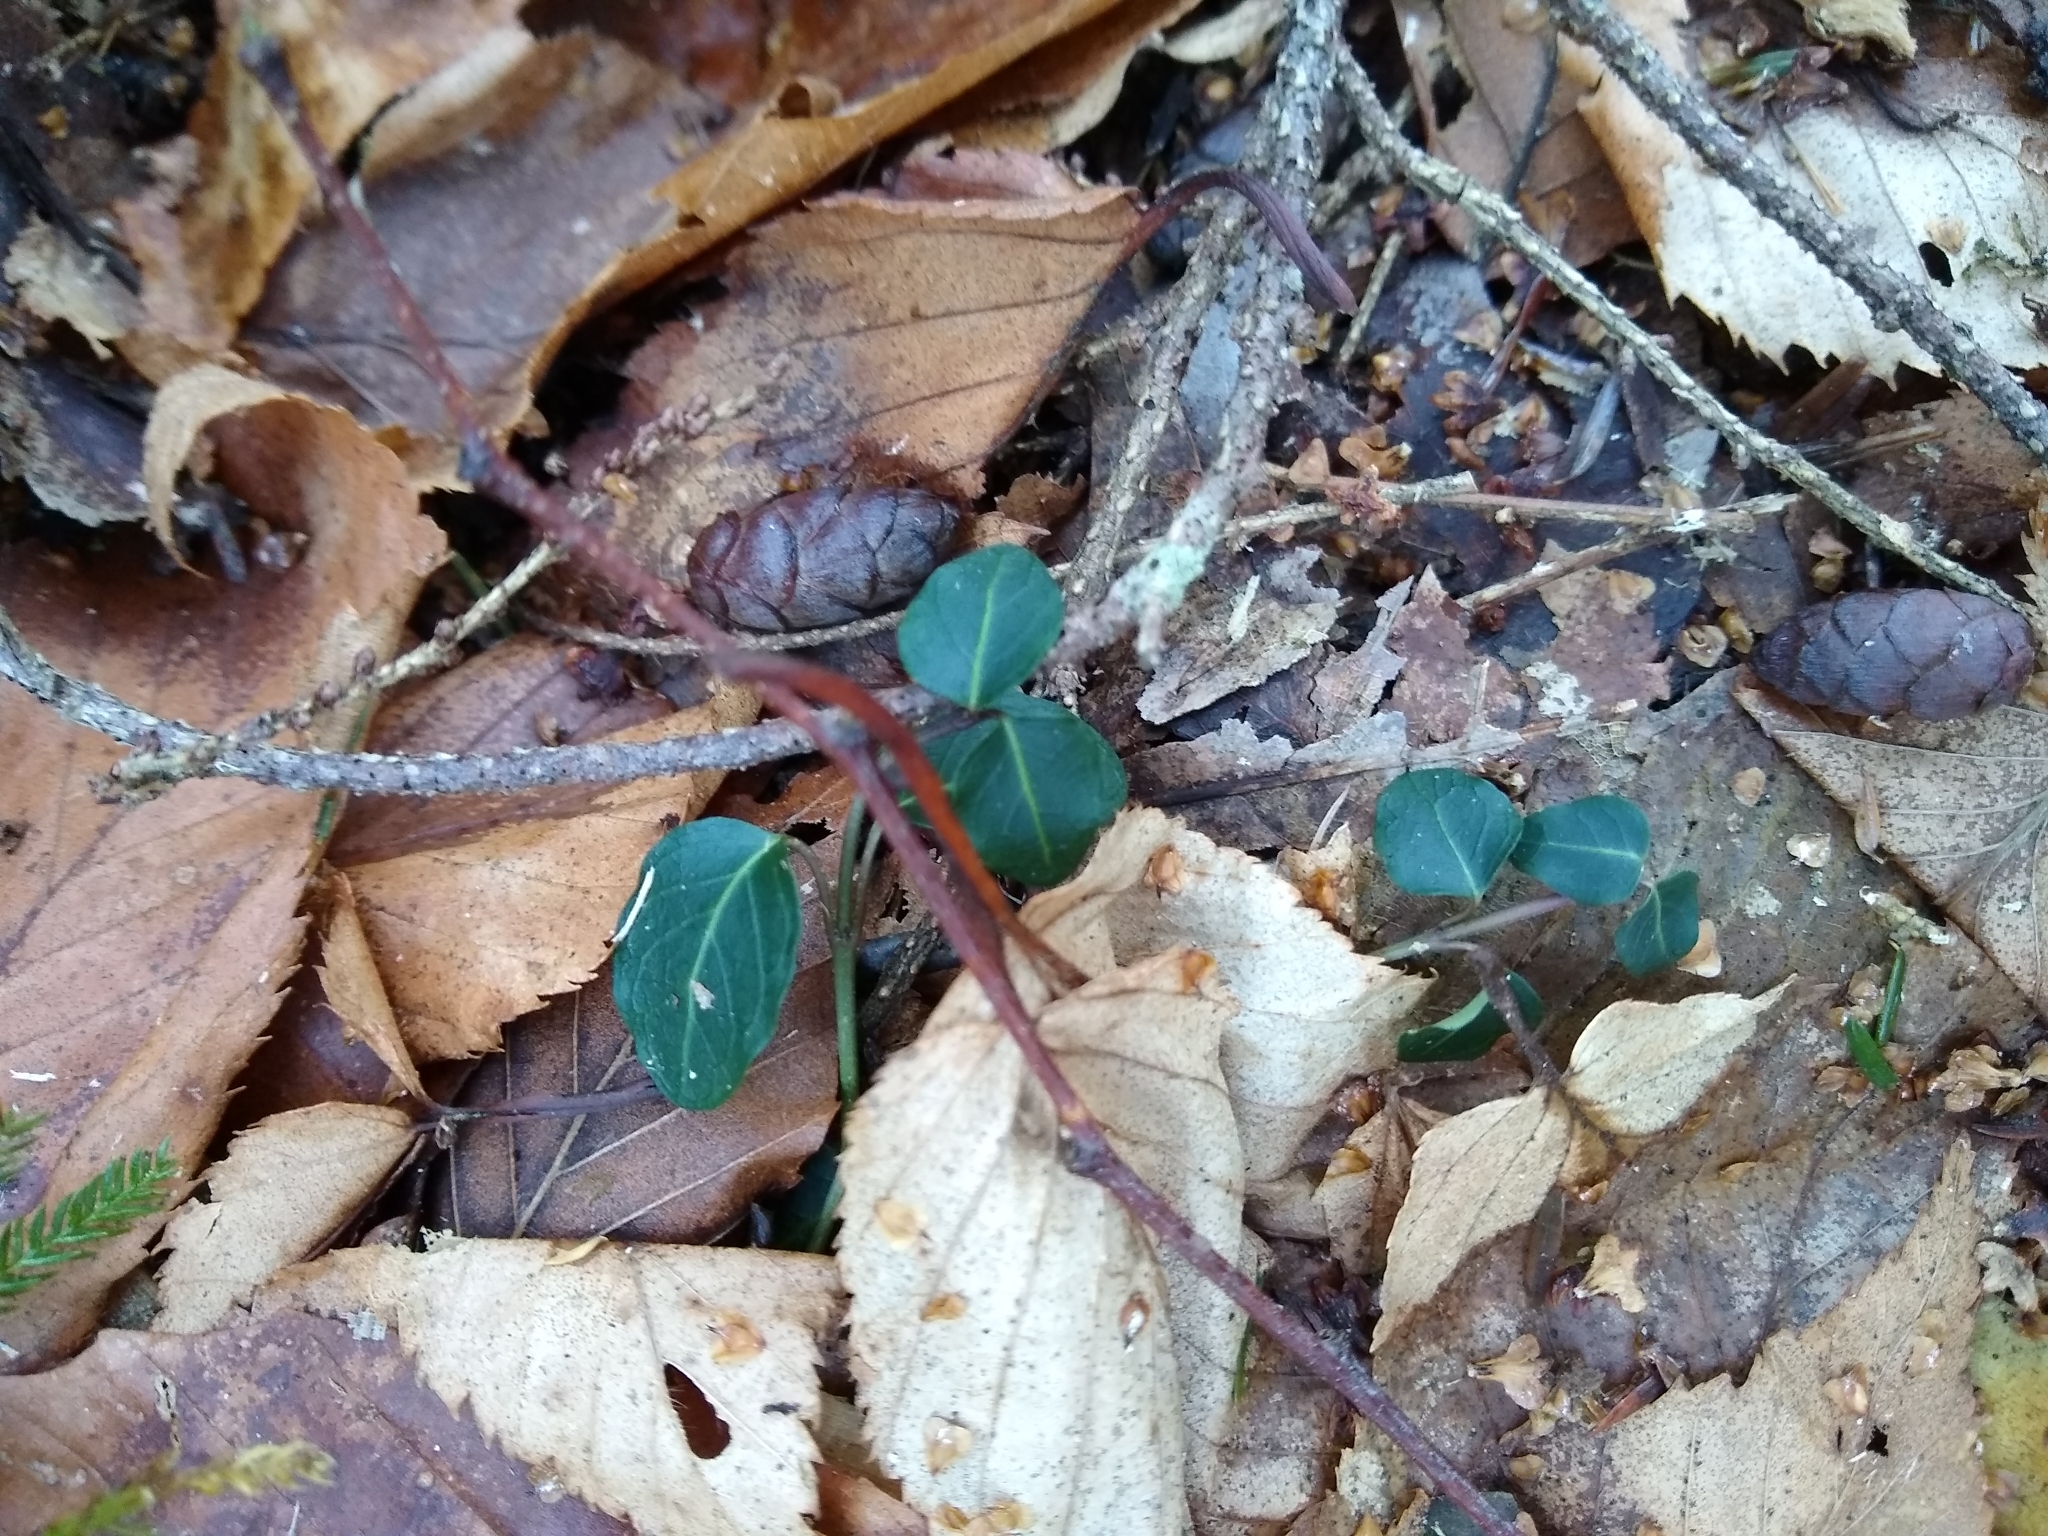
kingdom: Plantae
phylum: Tracheophyta
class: Magnoliopsida
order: Gentianales
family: Rubiaceae
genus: Mitchella
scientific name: Mitchella repens
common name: Partridge-berry
